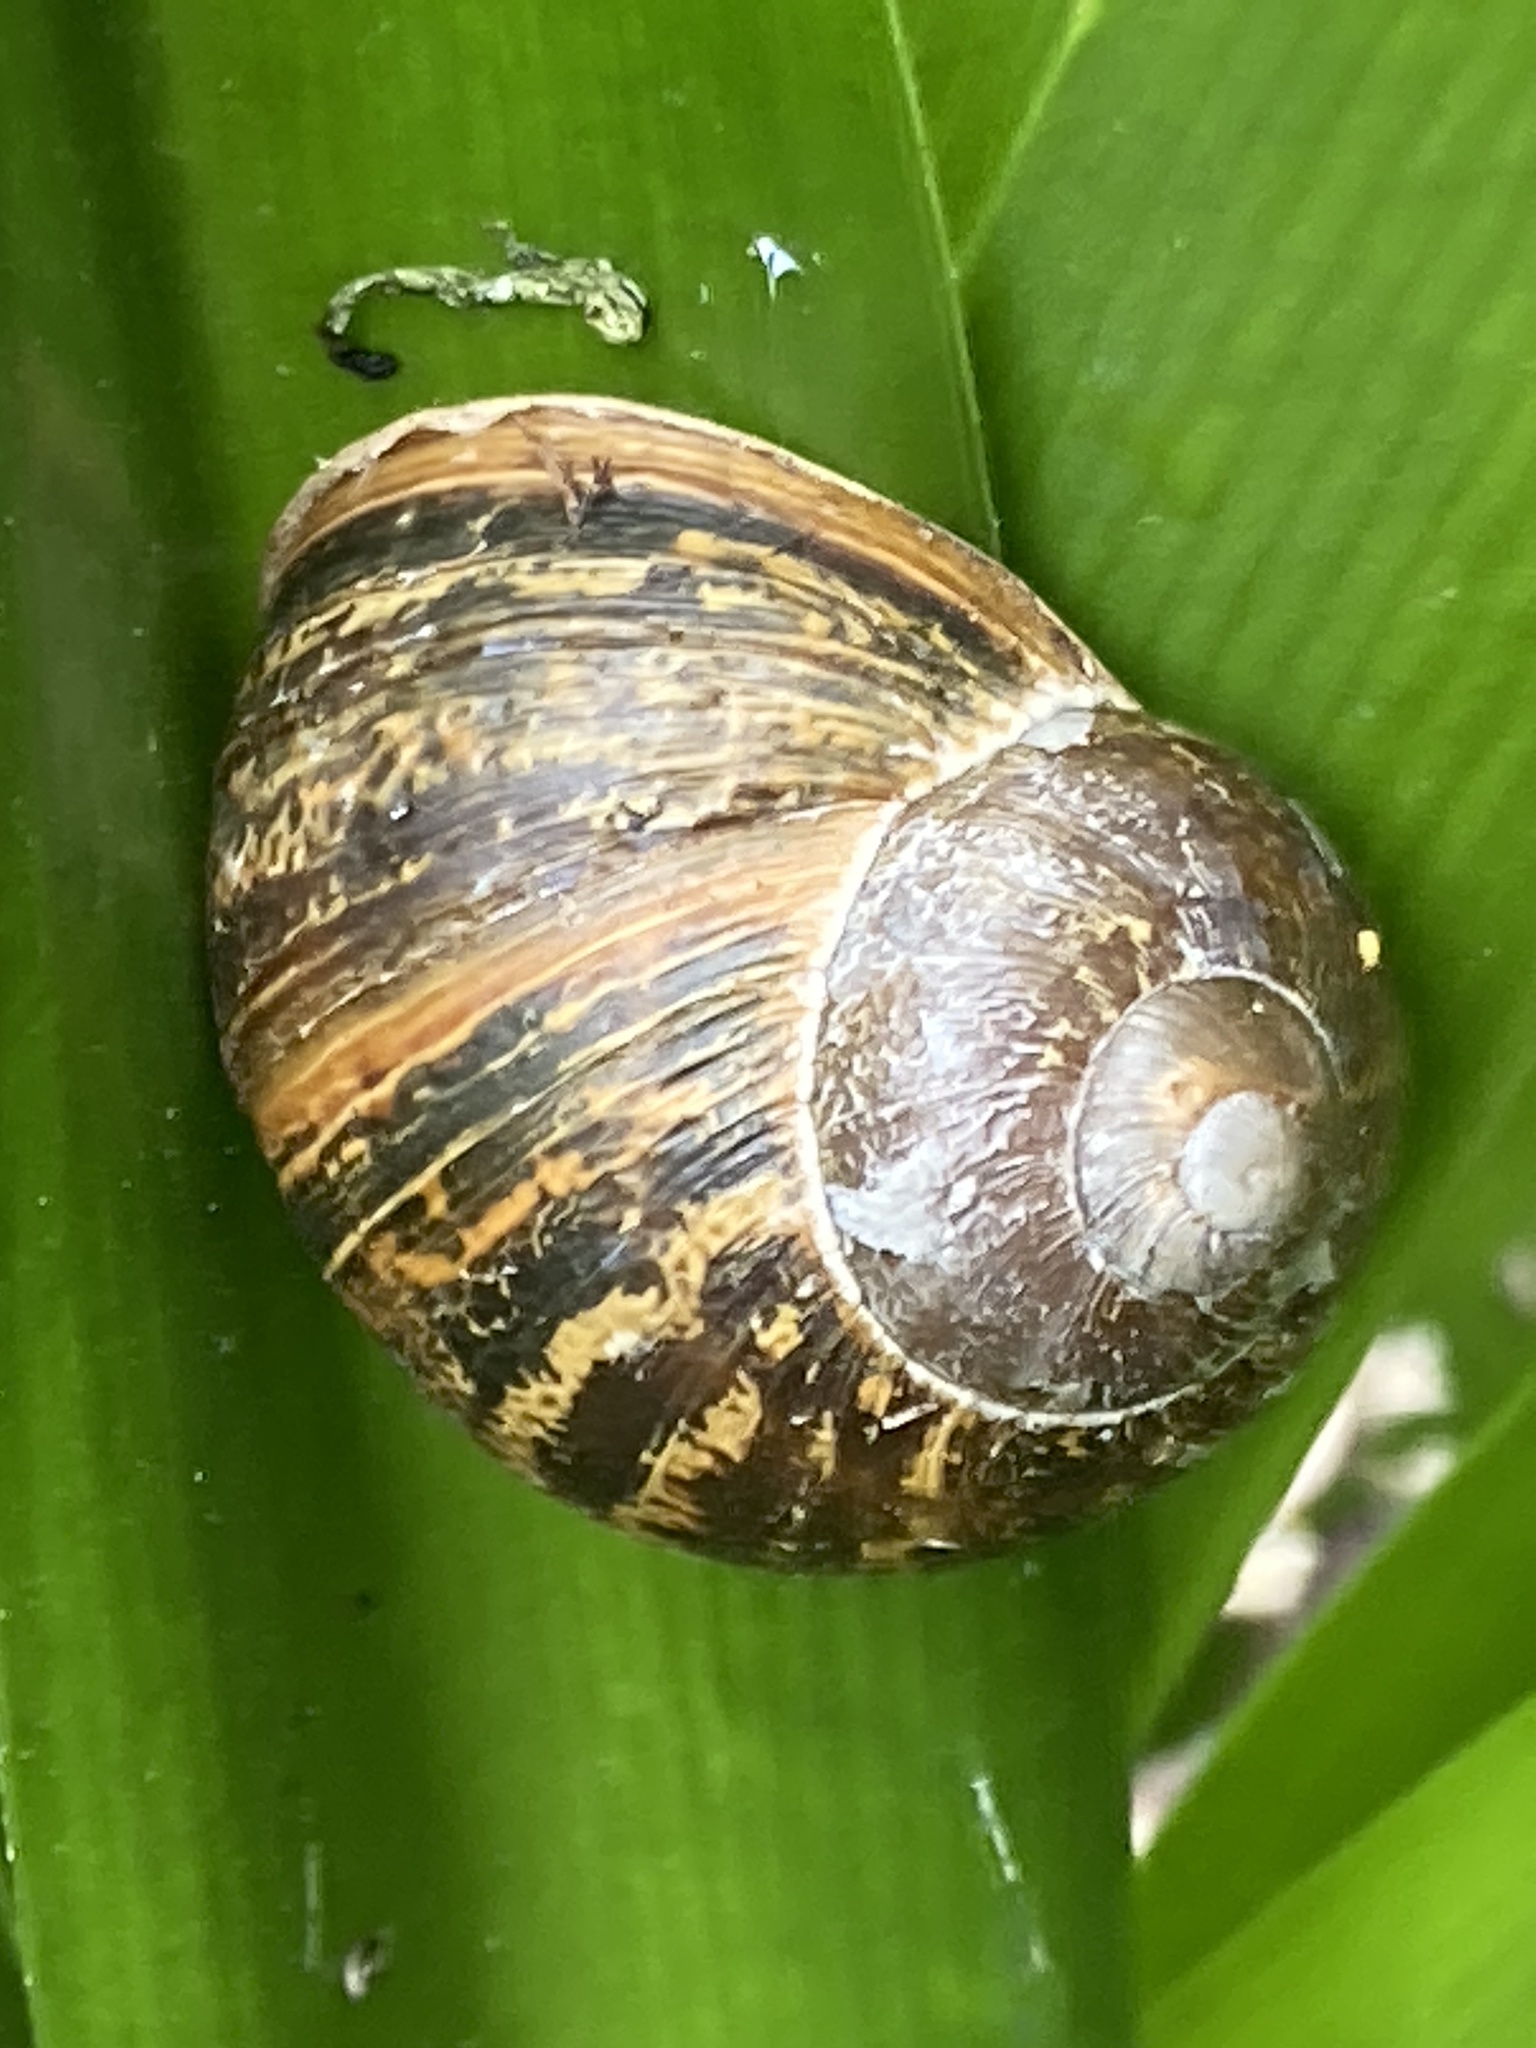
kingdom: Animalia
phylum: Mollusca
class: Gastropoda
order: Stylommatophora
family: Helicidae
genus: Cornu
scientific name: Cornu aspersum
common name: Brown garden snail
